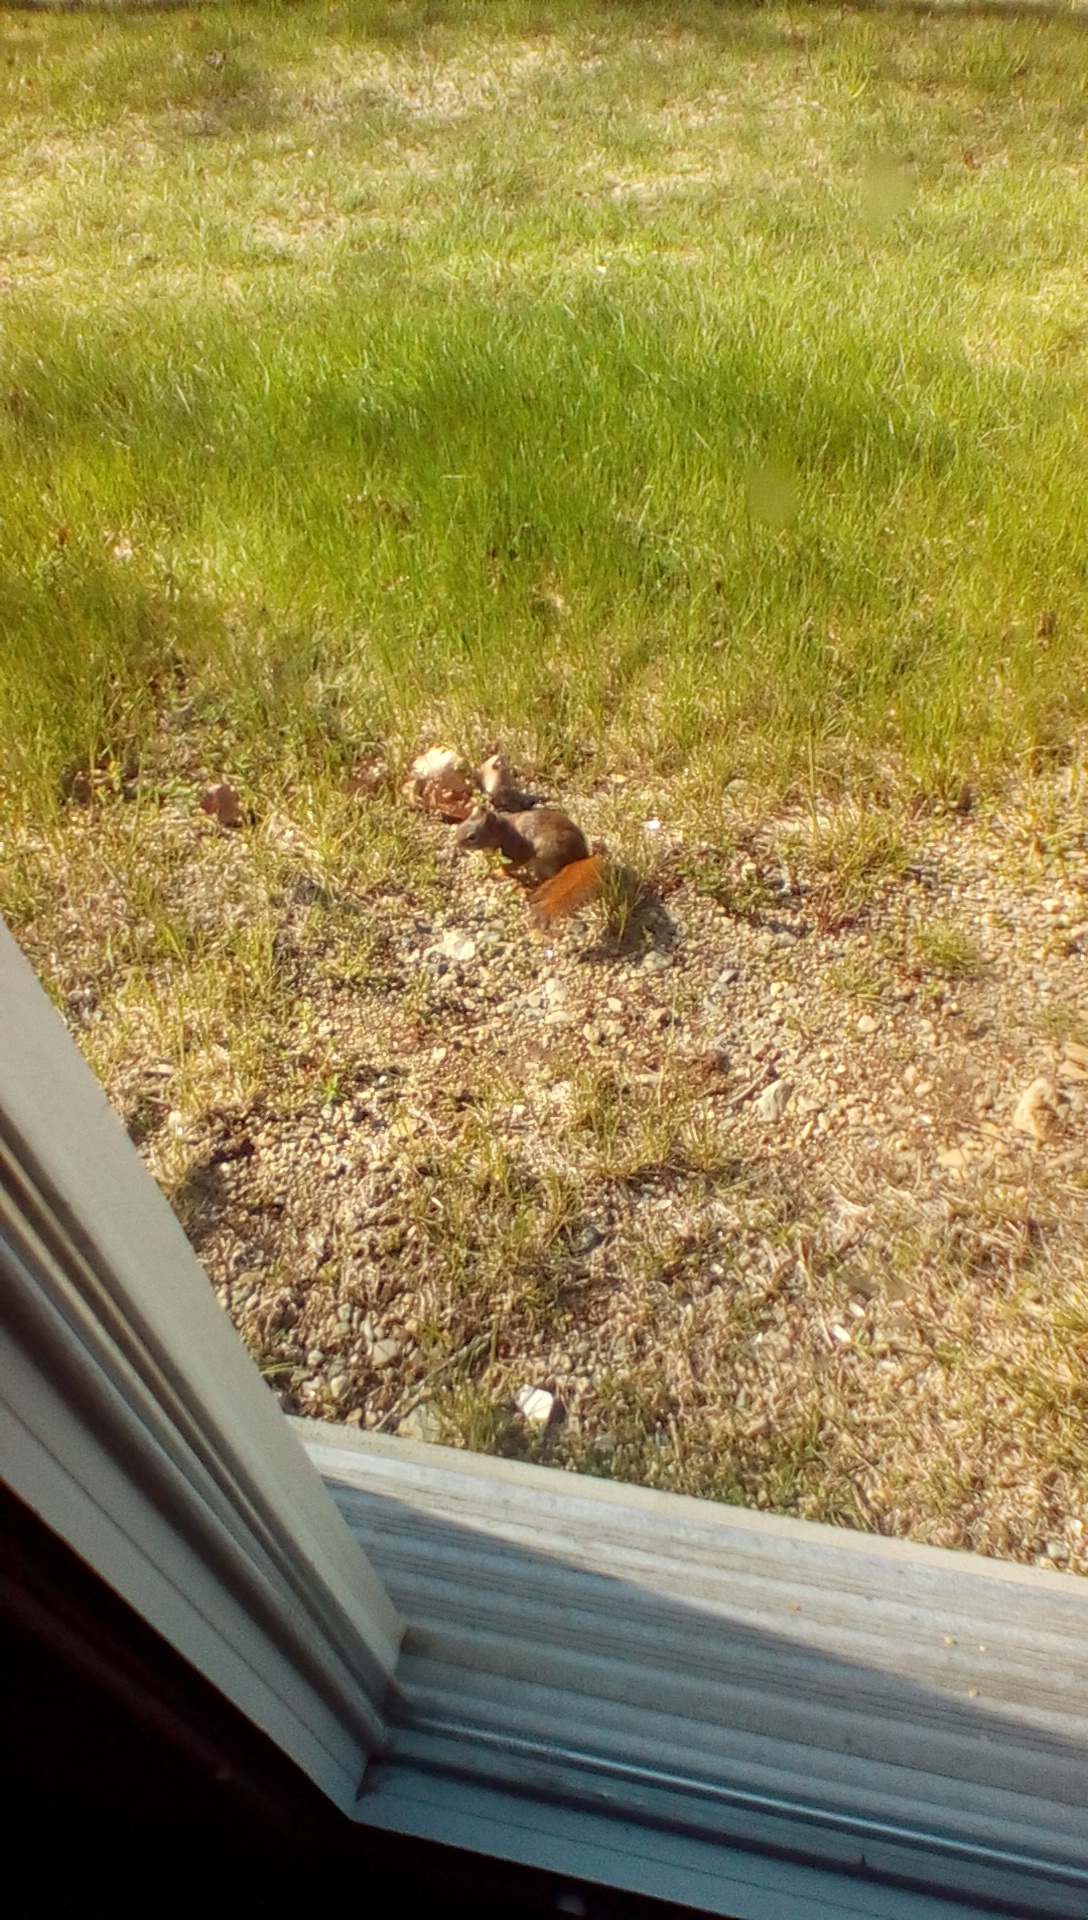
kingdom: Animalia
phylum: Chordata
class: Mammalia
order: Rodentia
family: Sciuridae
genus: Tamiasciurus
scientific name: Tamiasciurus hudsonicus
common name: Red squirrel
